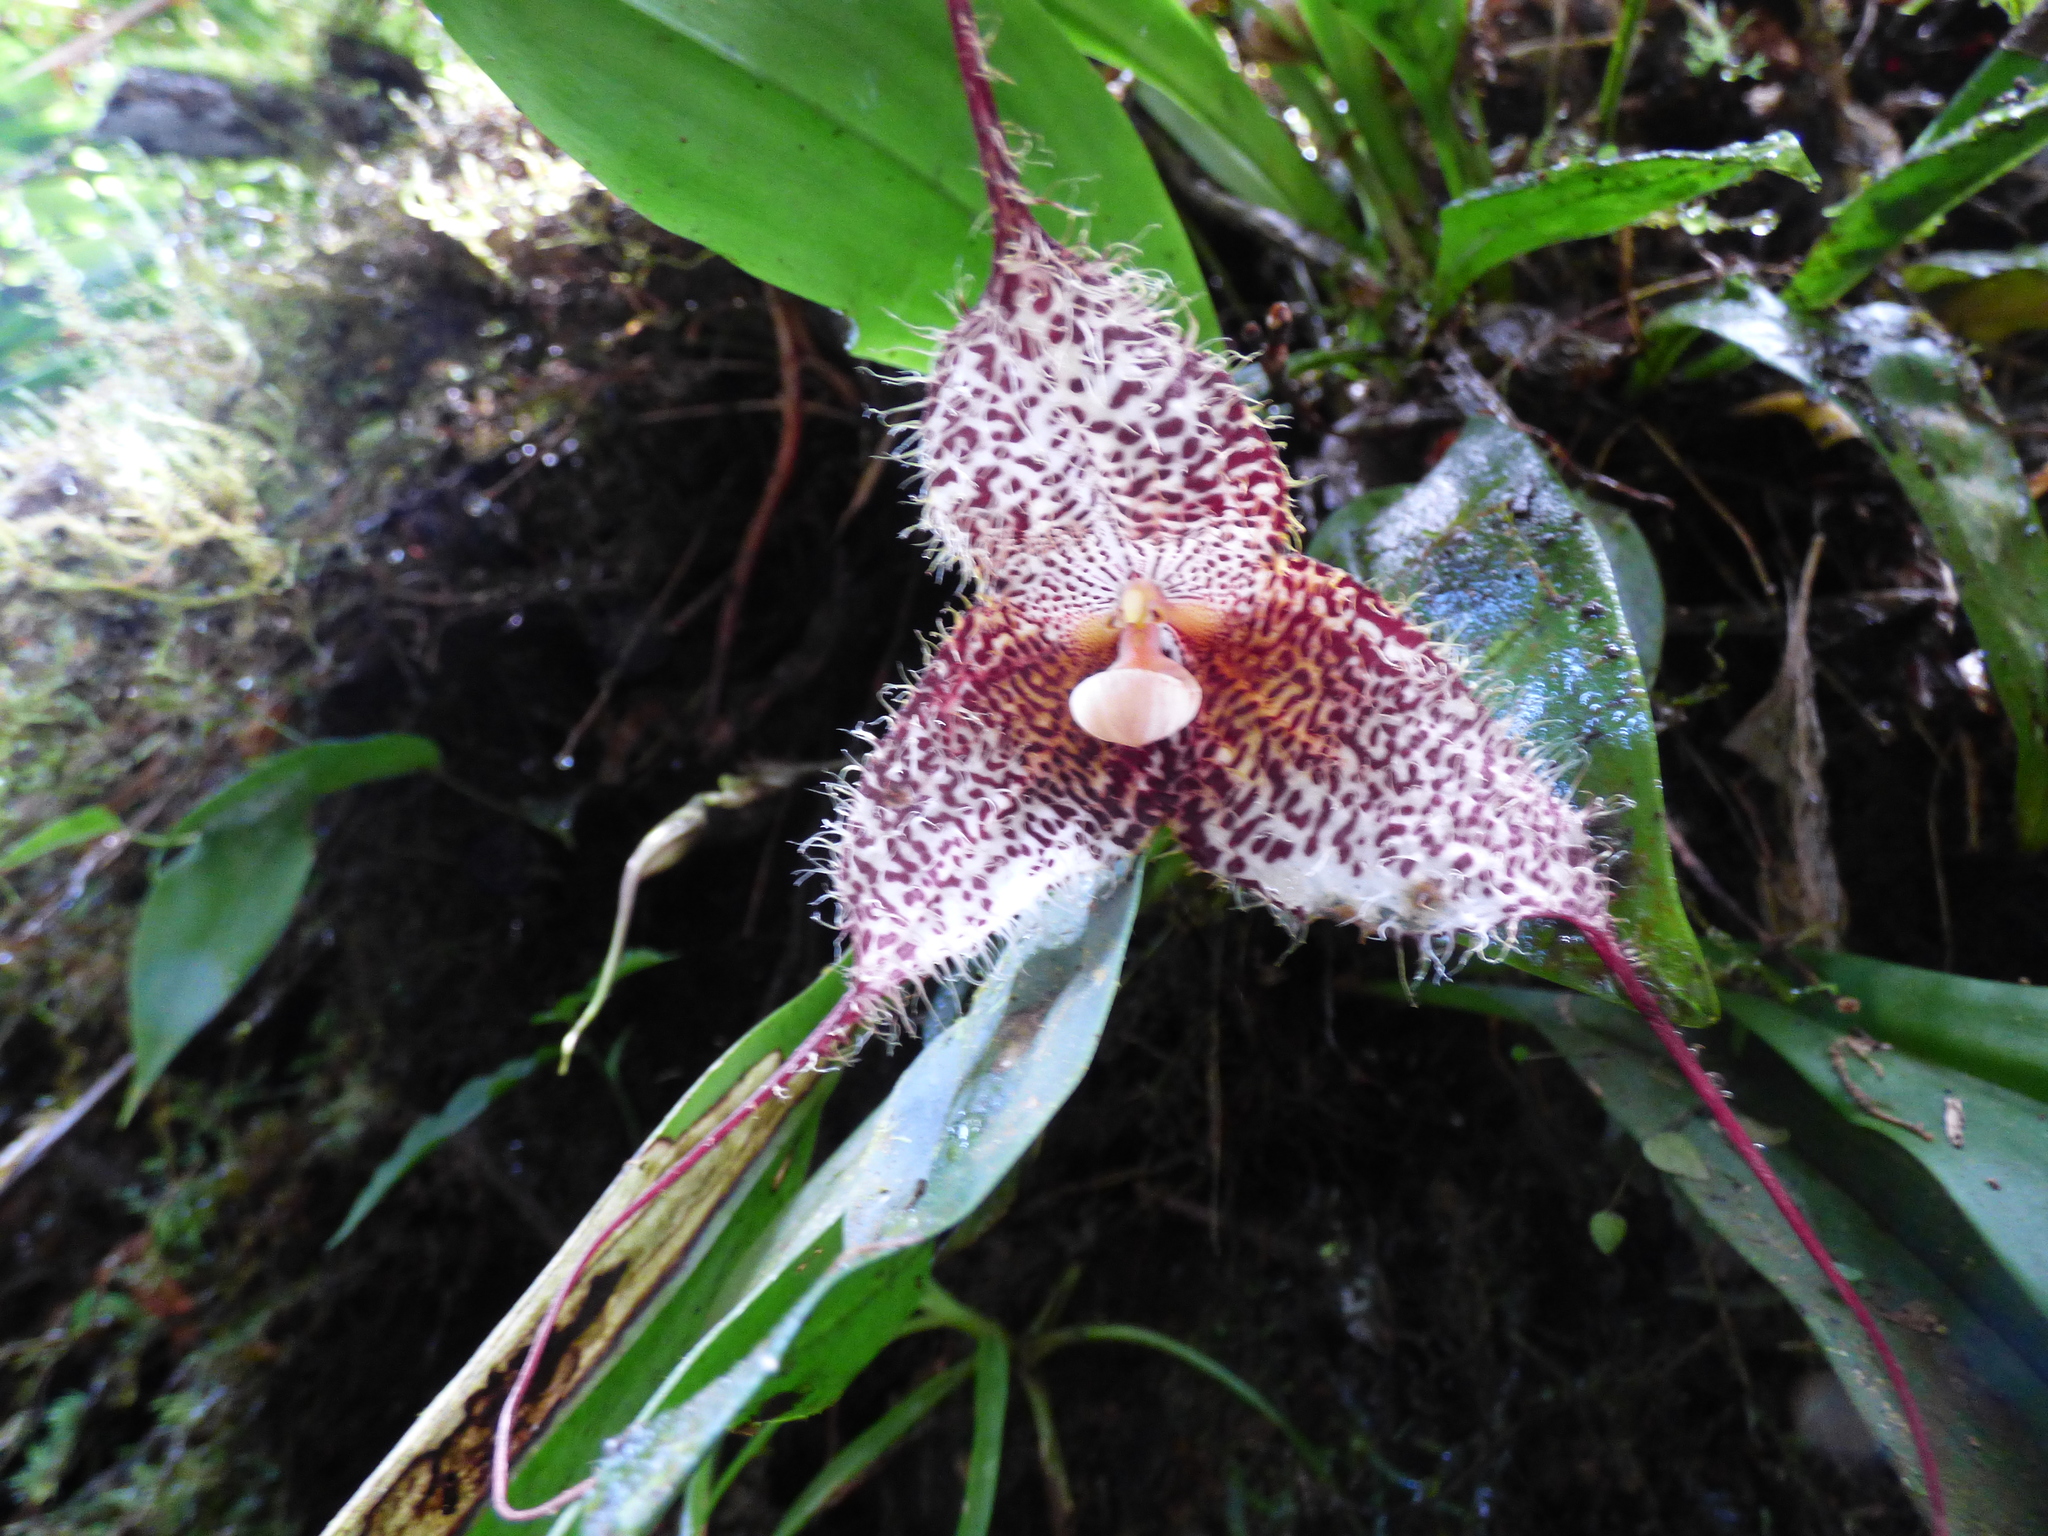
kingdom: Plantae
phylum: Tracheophyta
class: Liliopsida
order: Asparagales
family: Orchidaceae
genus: Dracula
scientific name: Dracula gorgona
